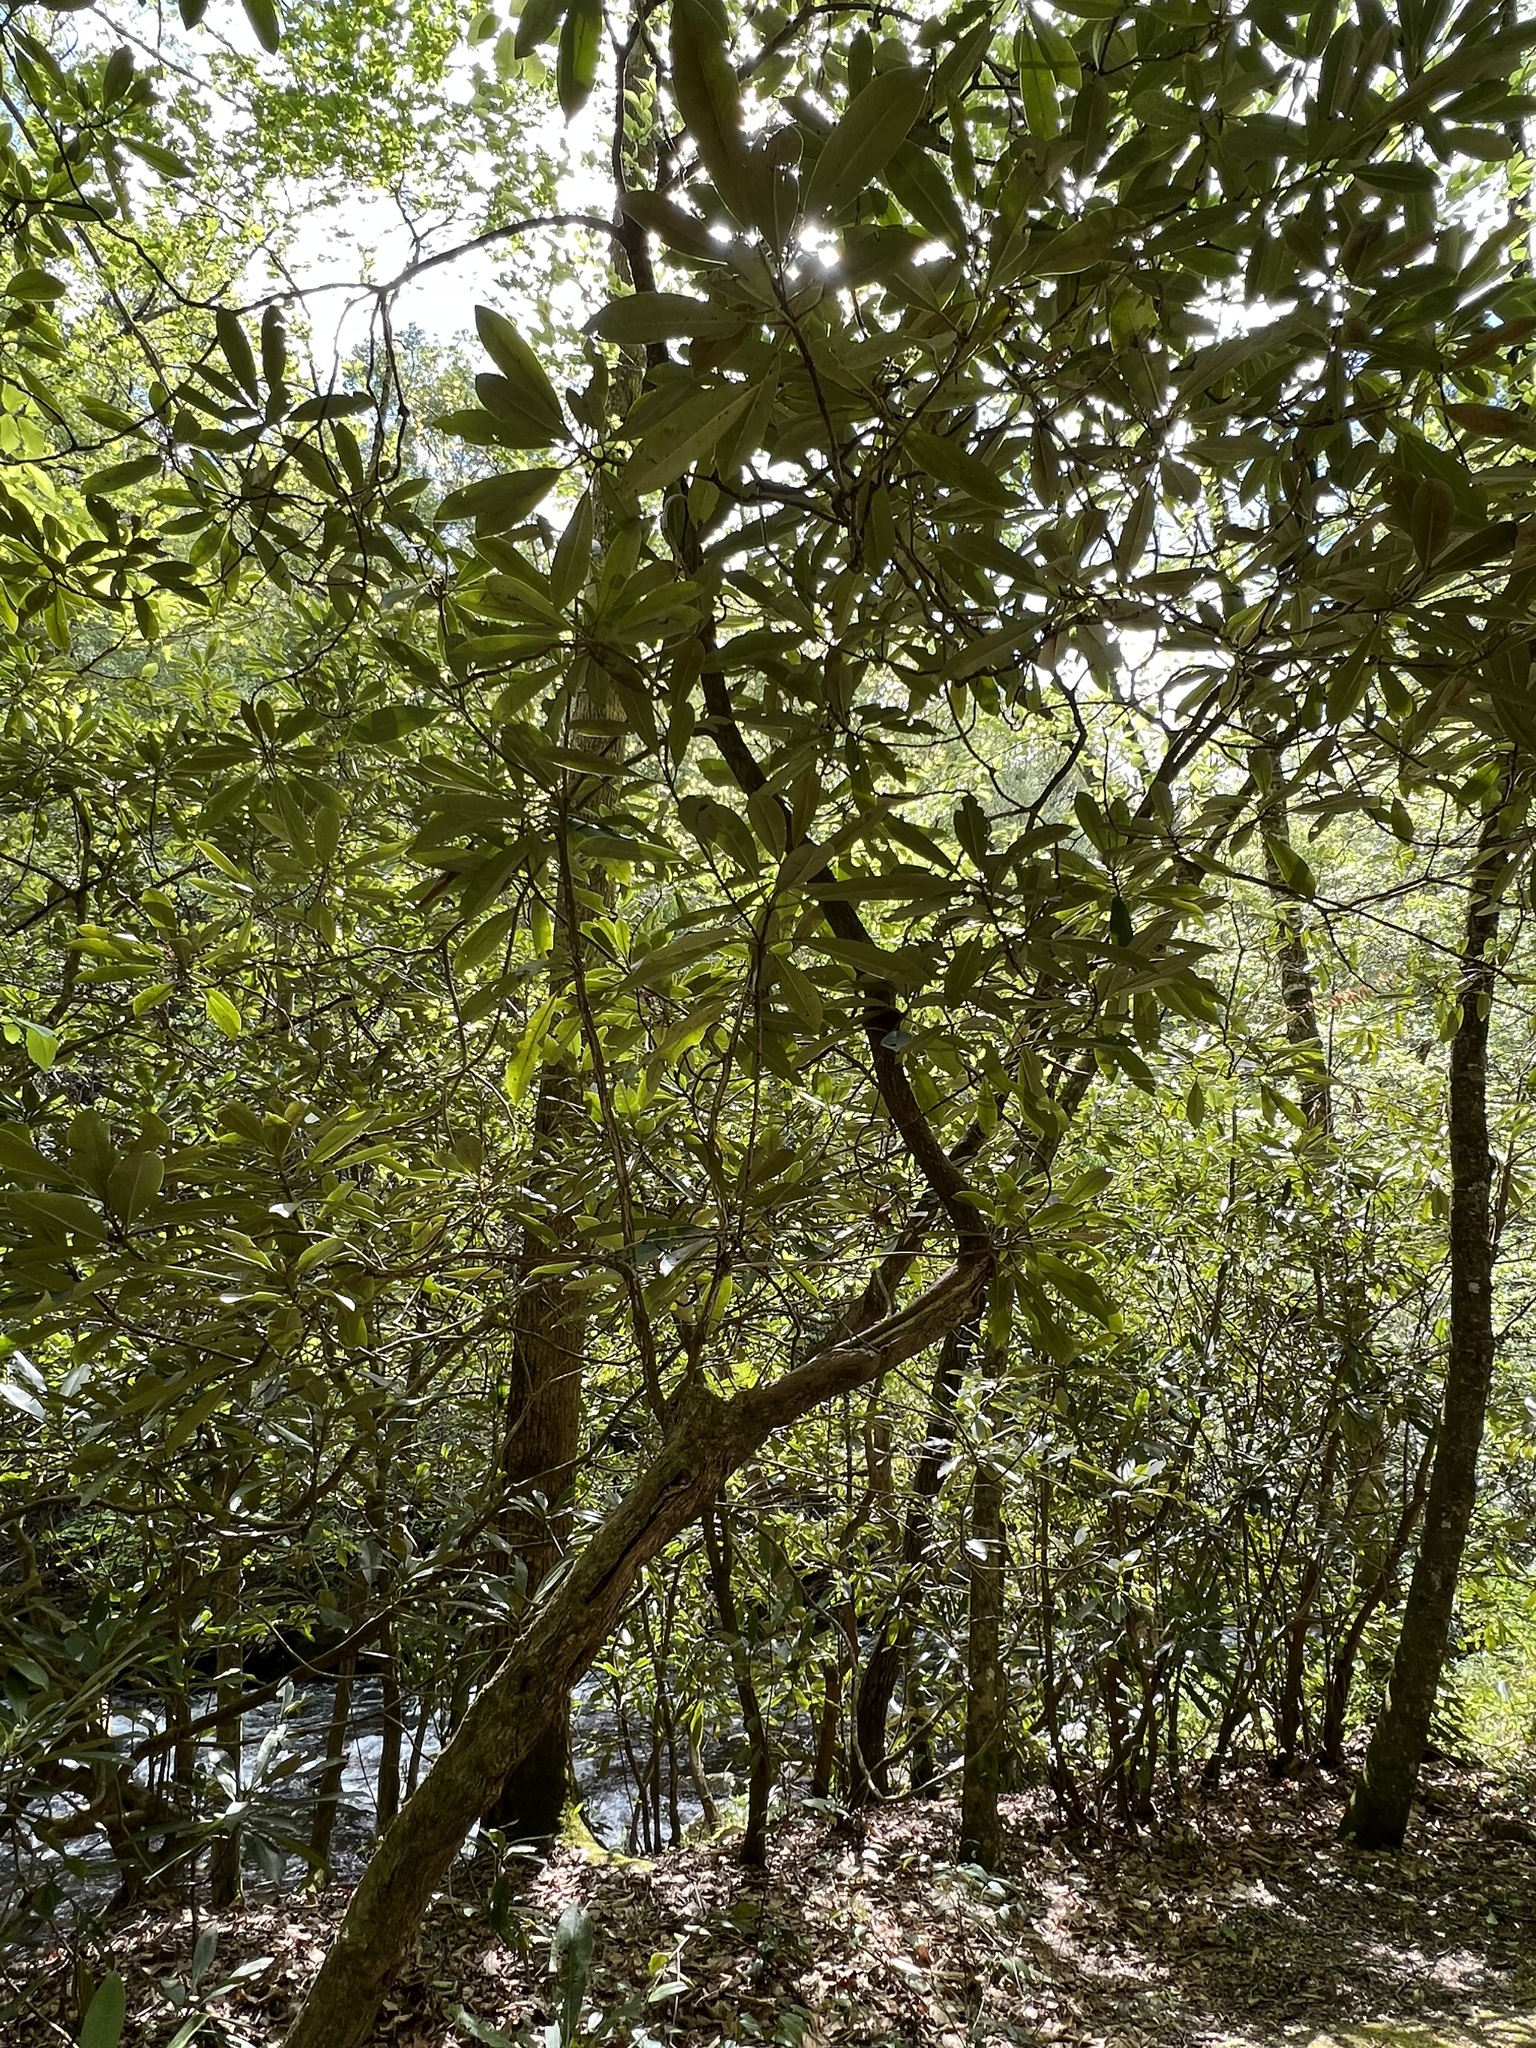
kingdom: Plantae
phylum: Tracheophyta
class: Magnoliopsida
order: Ericales
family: Ericaceae
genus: Rhododendron
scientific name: Rhododendron maximum
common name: Great rhododendron
